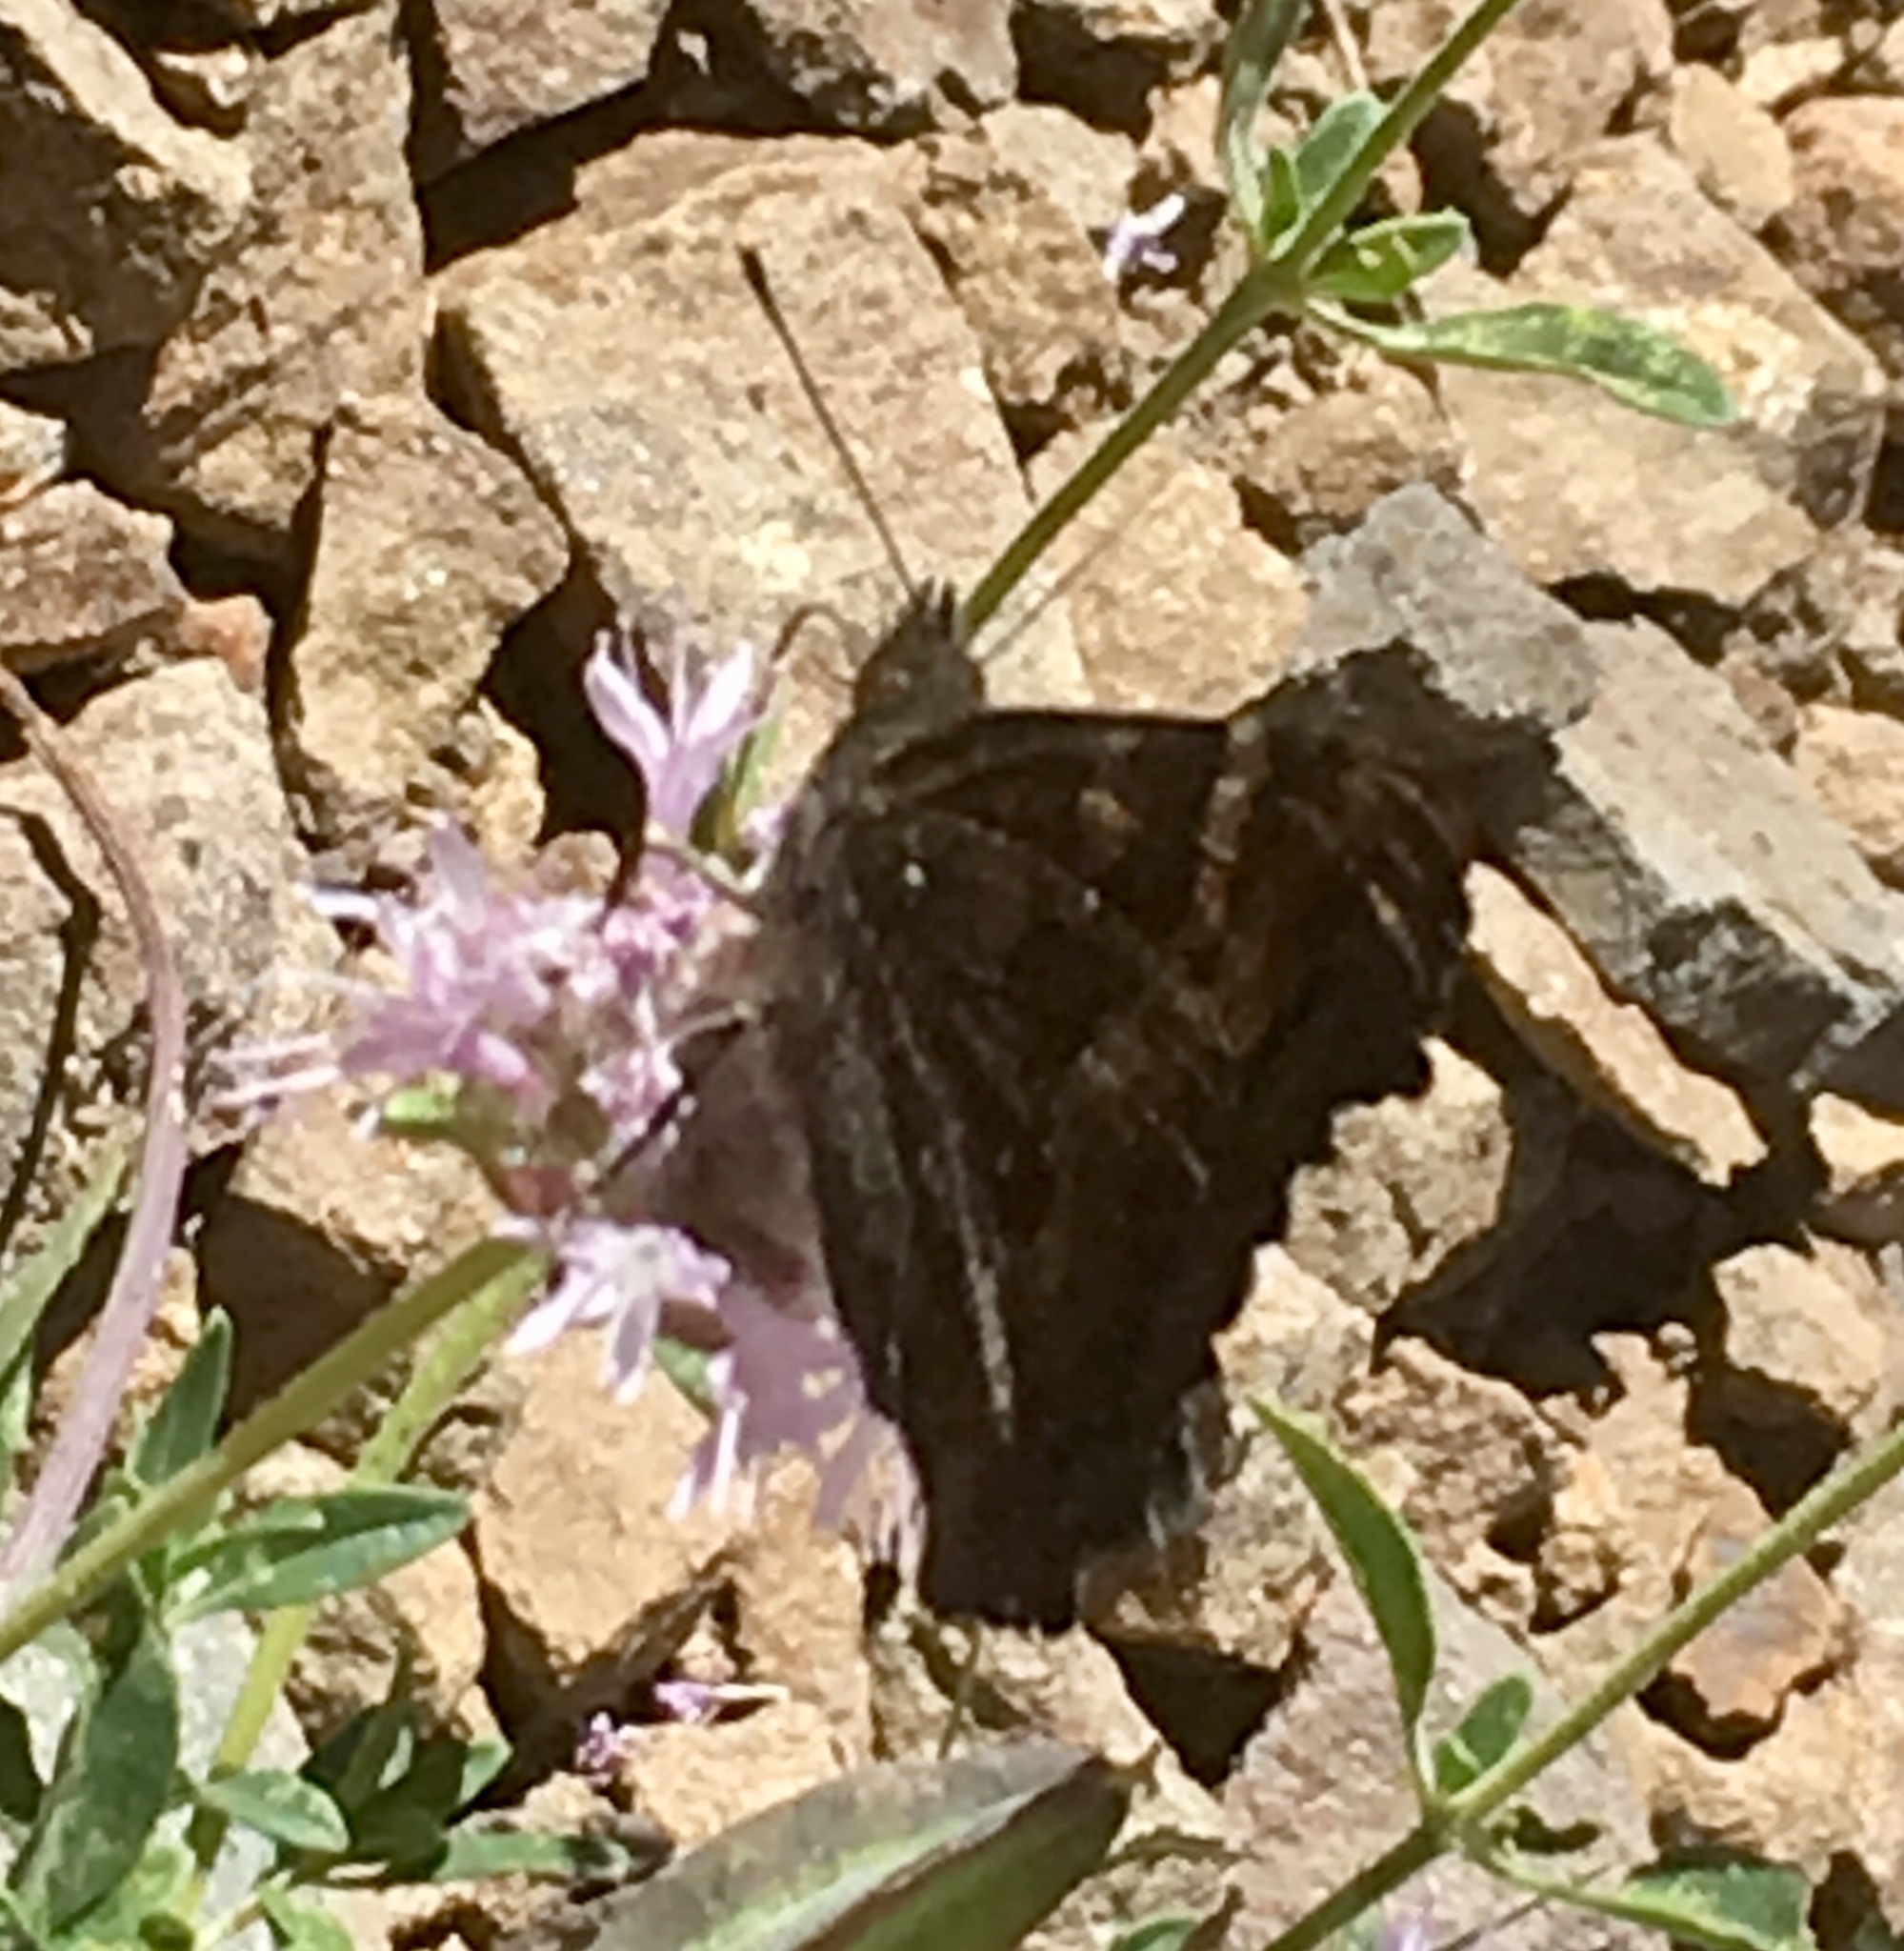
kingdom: Animalia
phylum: Arthropoda
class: Insecta
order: Lepidoptera
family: Nymphalidae
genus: Nymphalis
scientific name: Nymphalis californica
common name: California tortoiseshell
